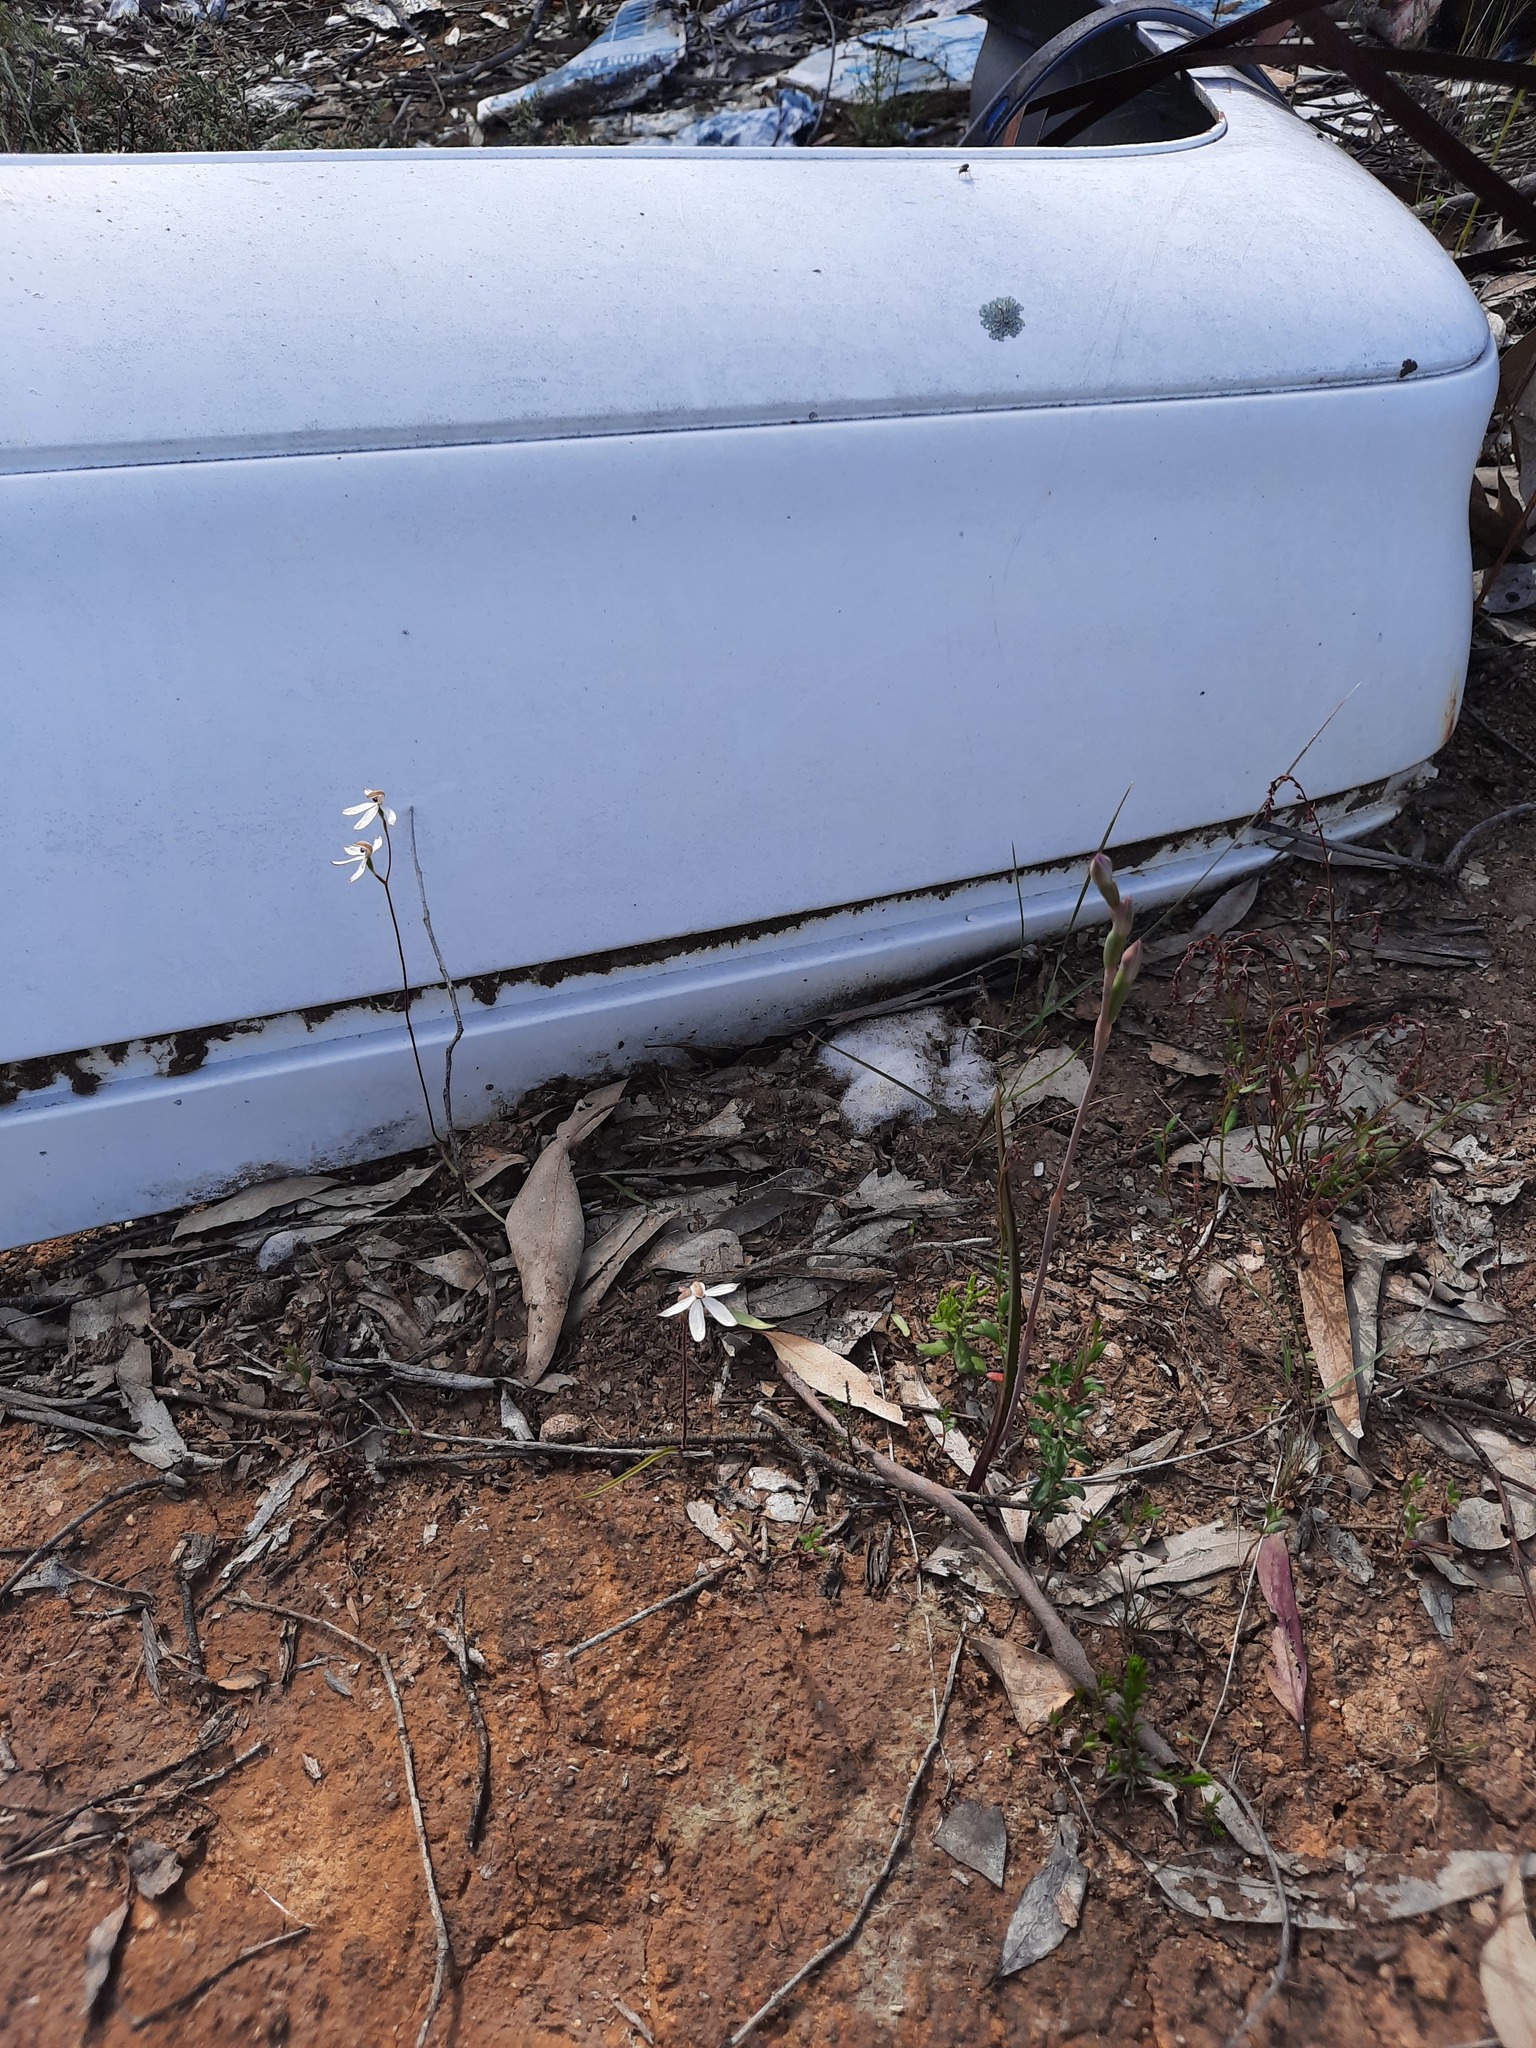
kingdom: Plantae
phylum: Tracheophyta
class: Liliopsida
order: Asparagales
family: Orchidaceae
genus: Caladenia
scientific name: Caladenia cucullata
